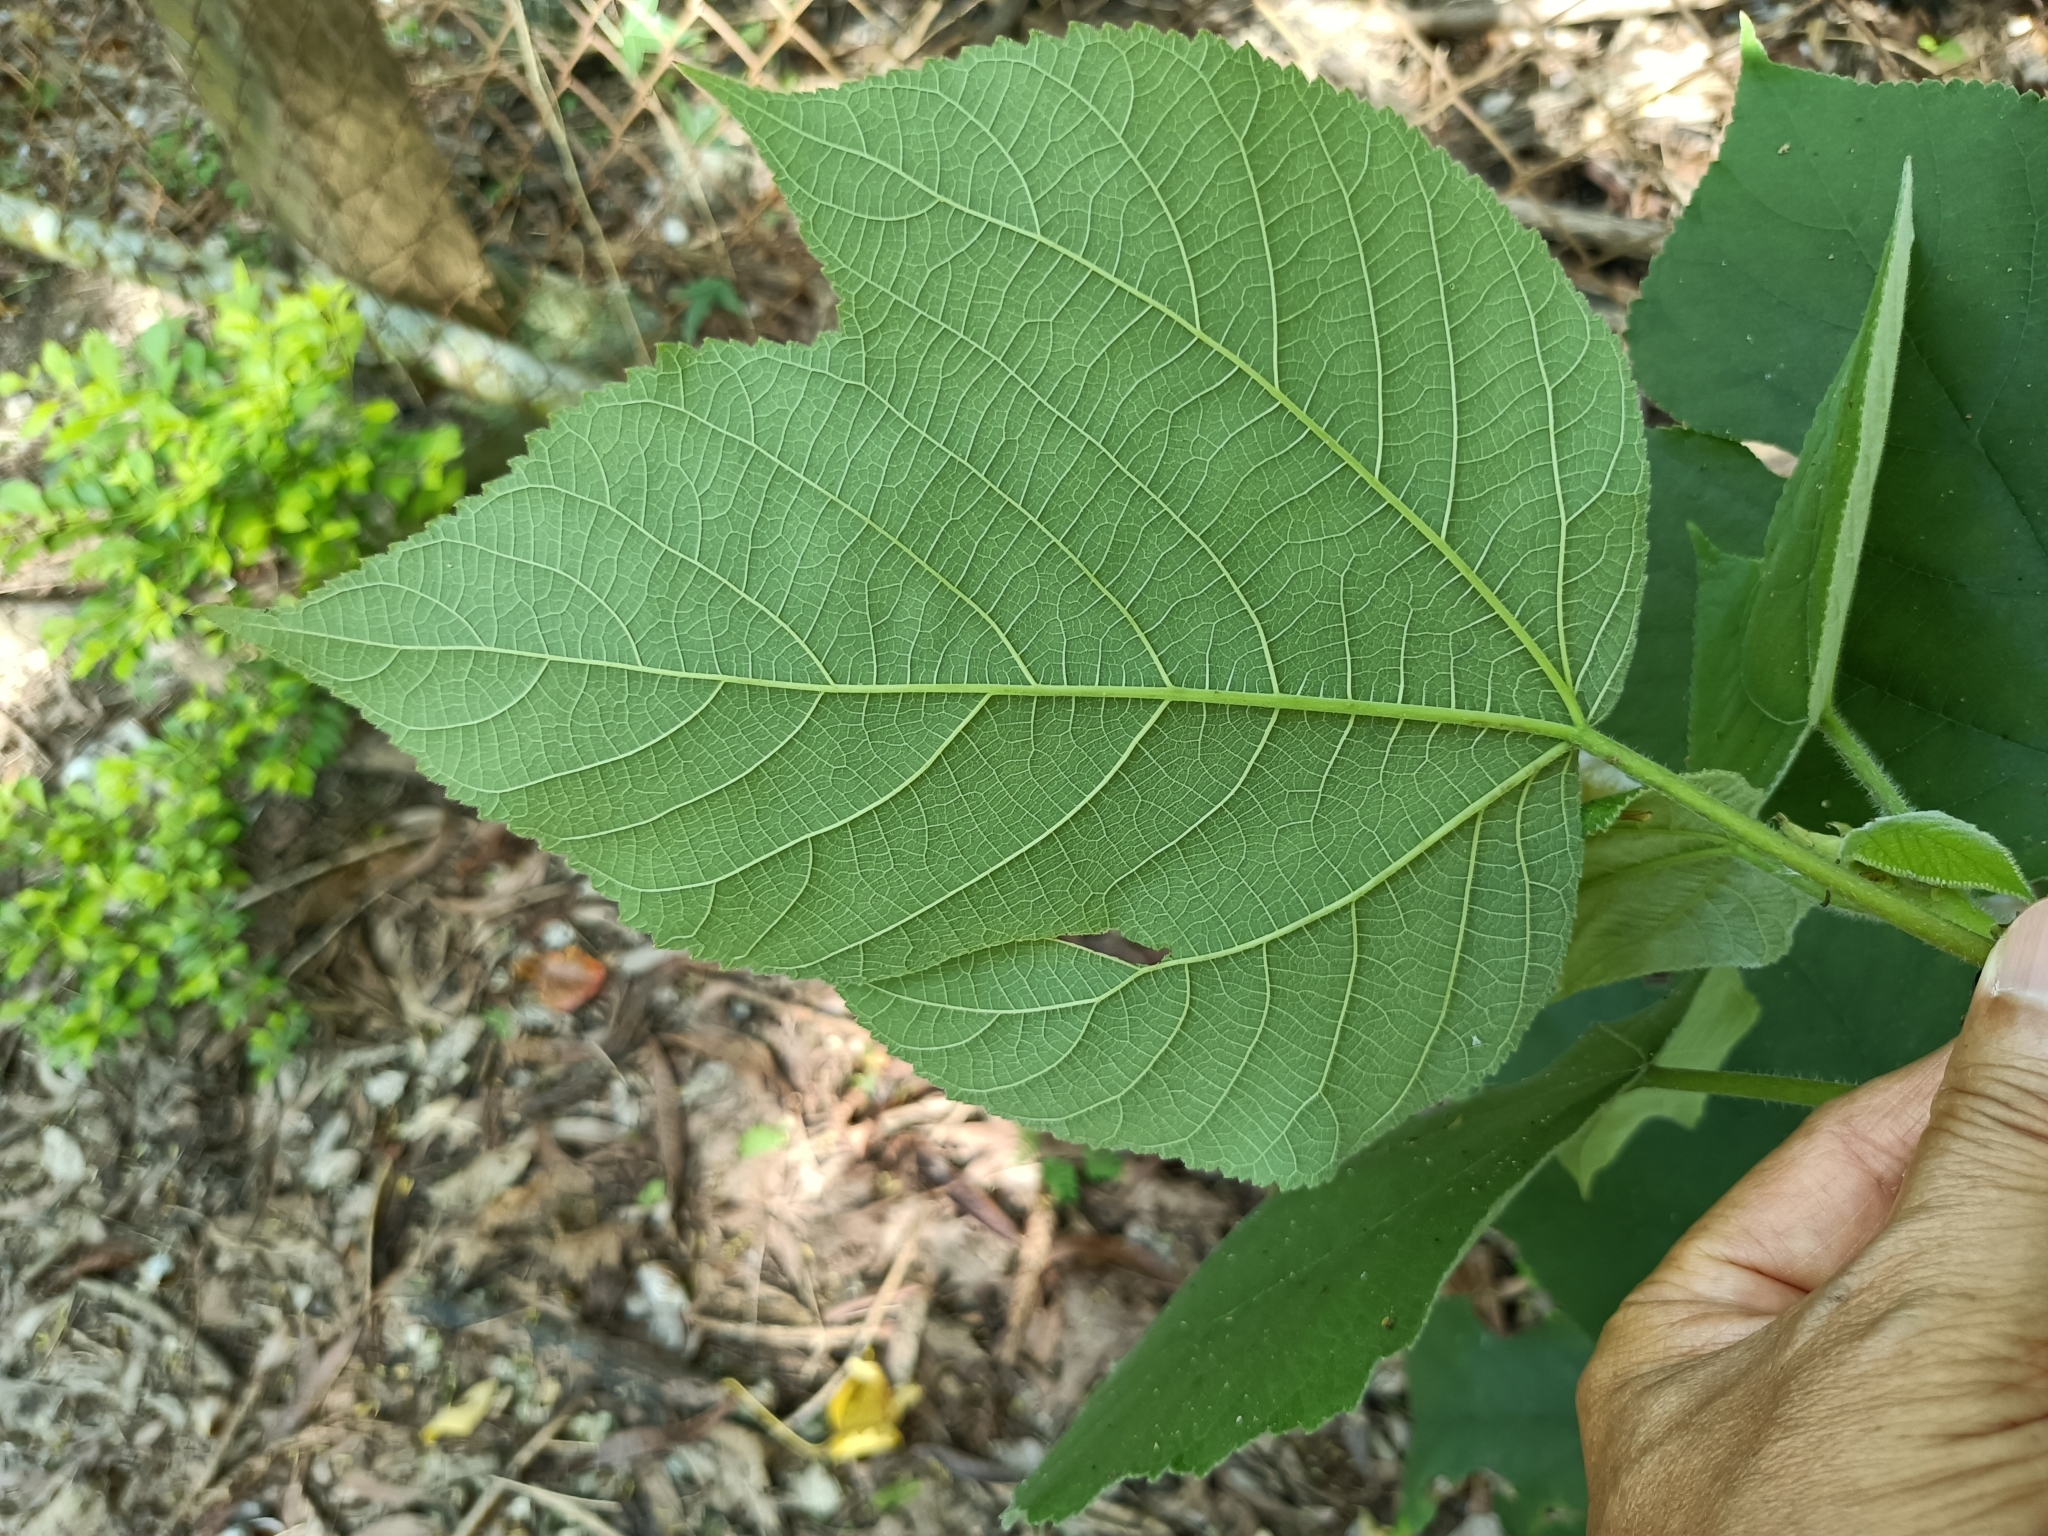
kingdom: Plantae
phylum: Tracheophyta
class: Magnoliopsida
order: Rosales
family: Moraceae
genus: Broussonetia
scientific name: Broussonetia papyrifera
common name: Paper mulberry
